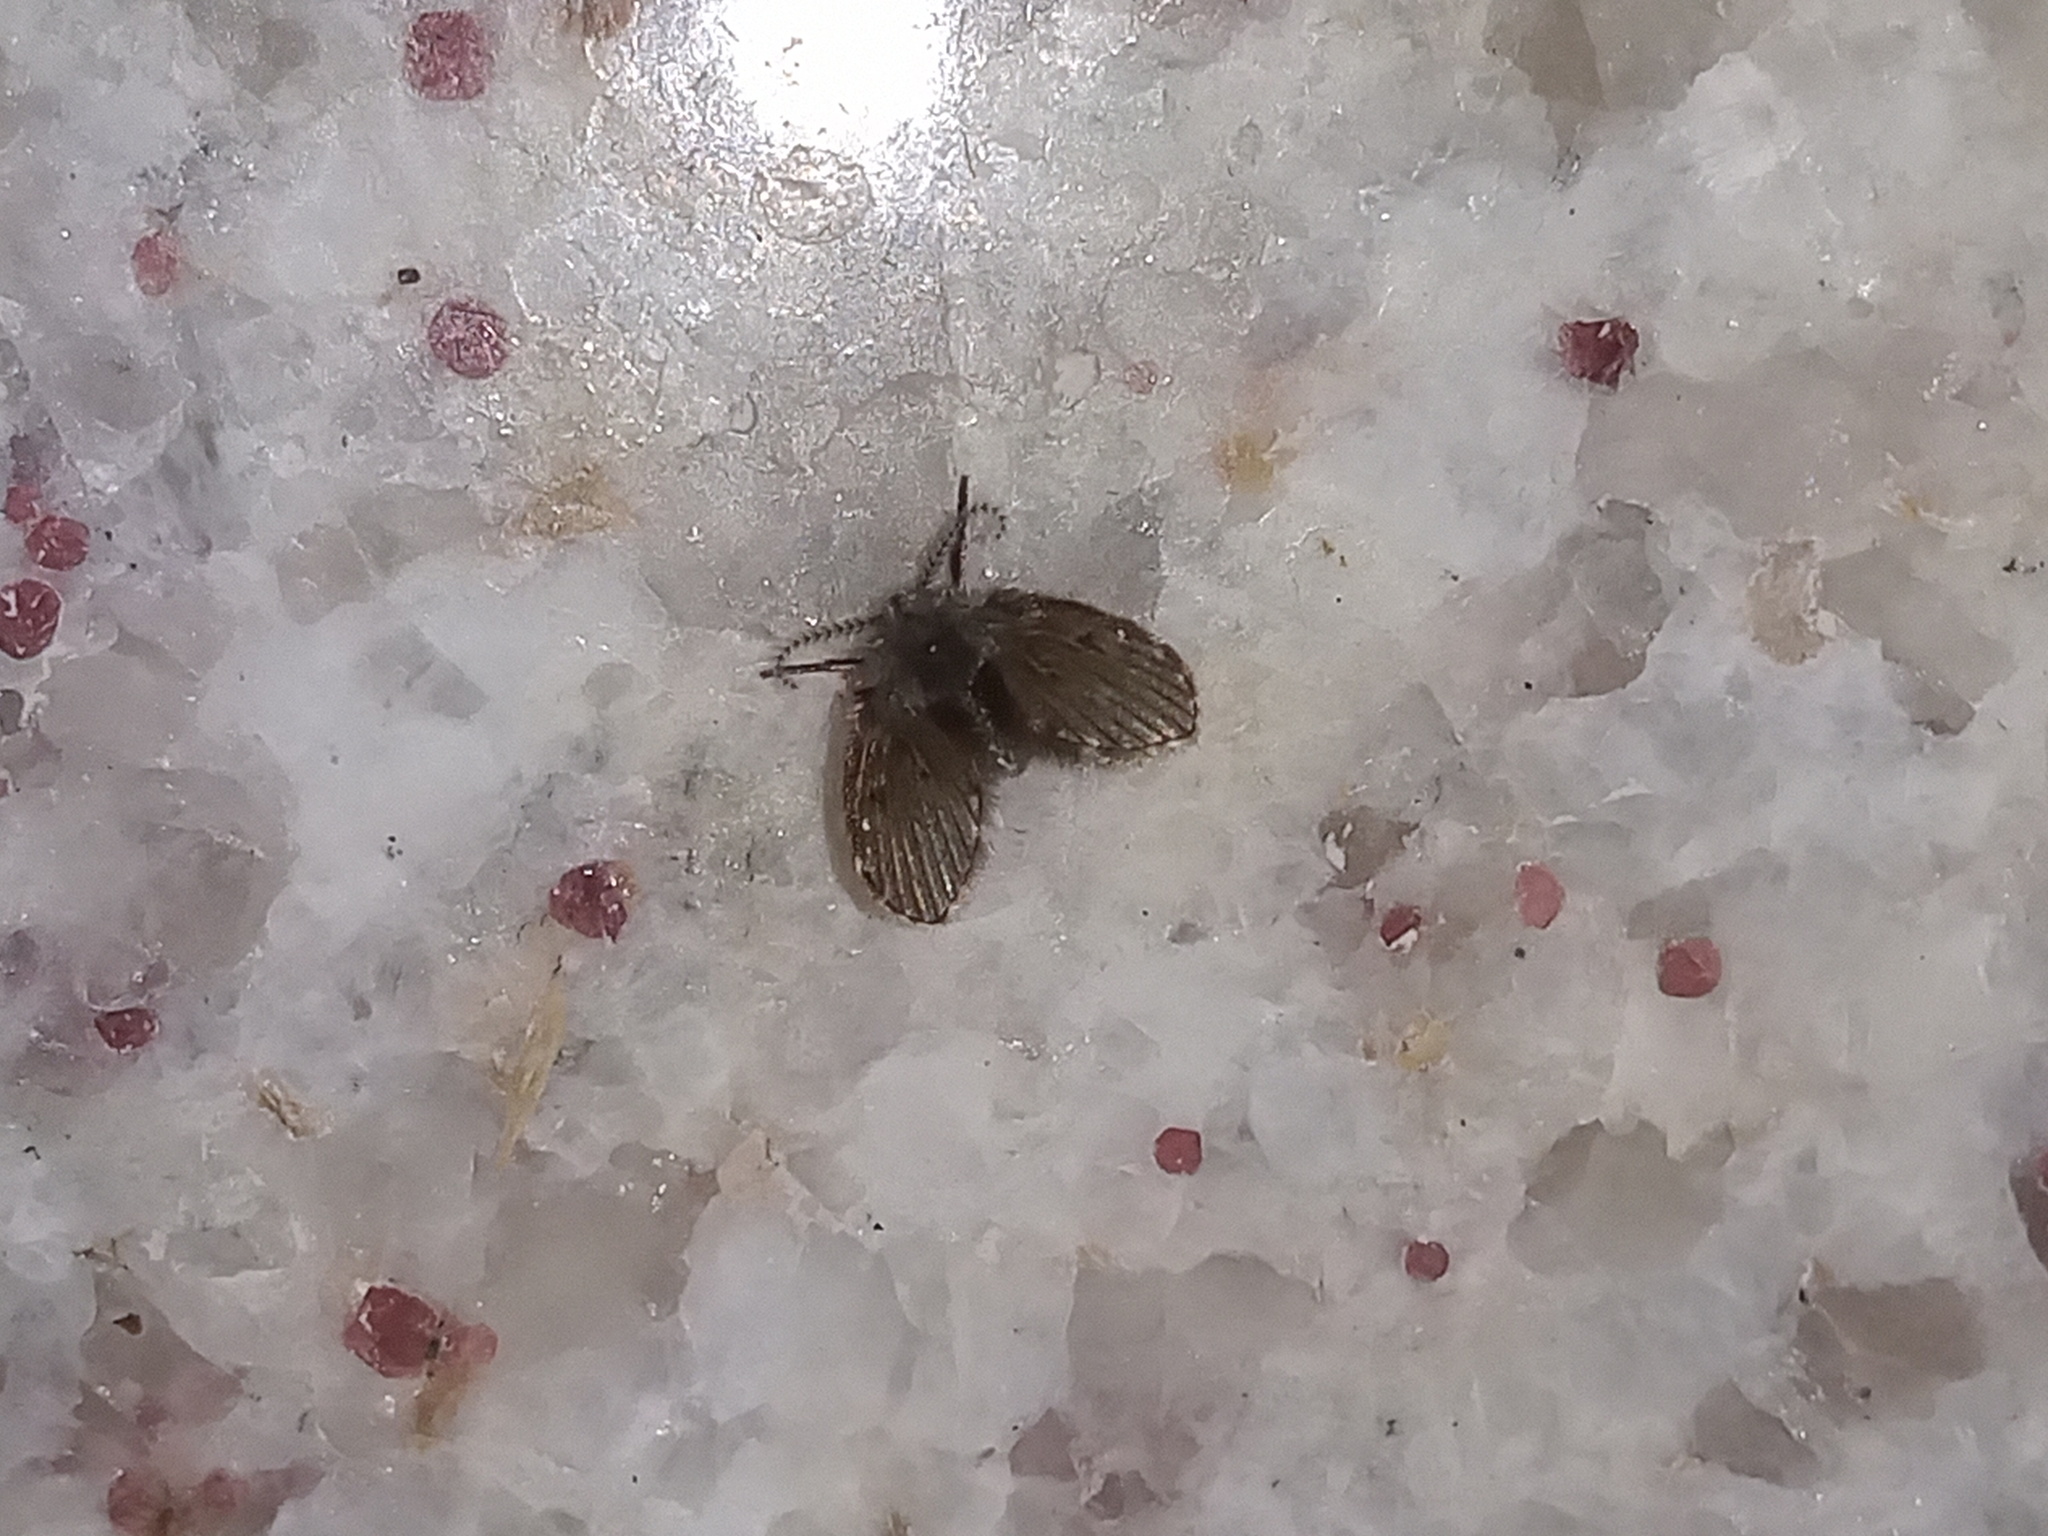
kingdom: Animalia
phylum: Arthropoda
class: Insecta
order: Diptera
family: Psychodidae
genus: Clogmia
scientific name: Clogmia albipunctatus
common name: White-spotted moth fly
